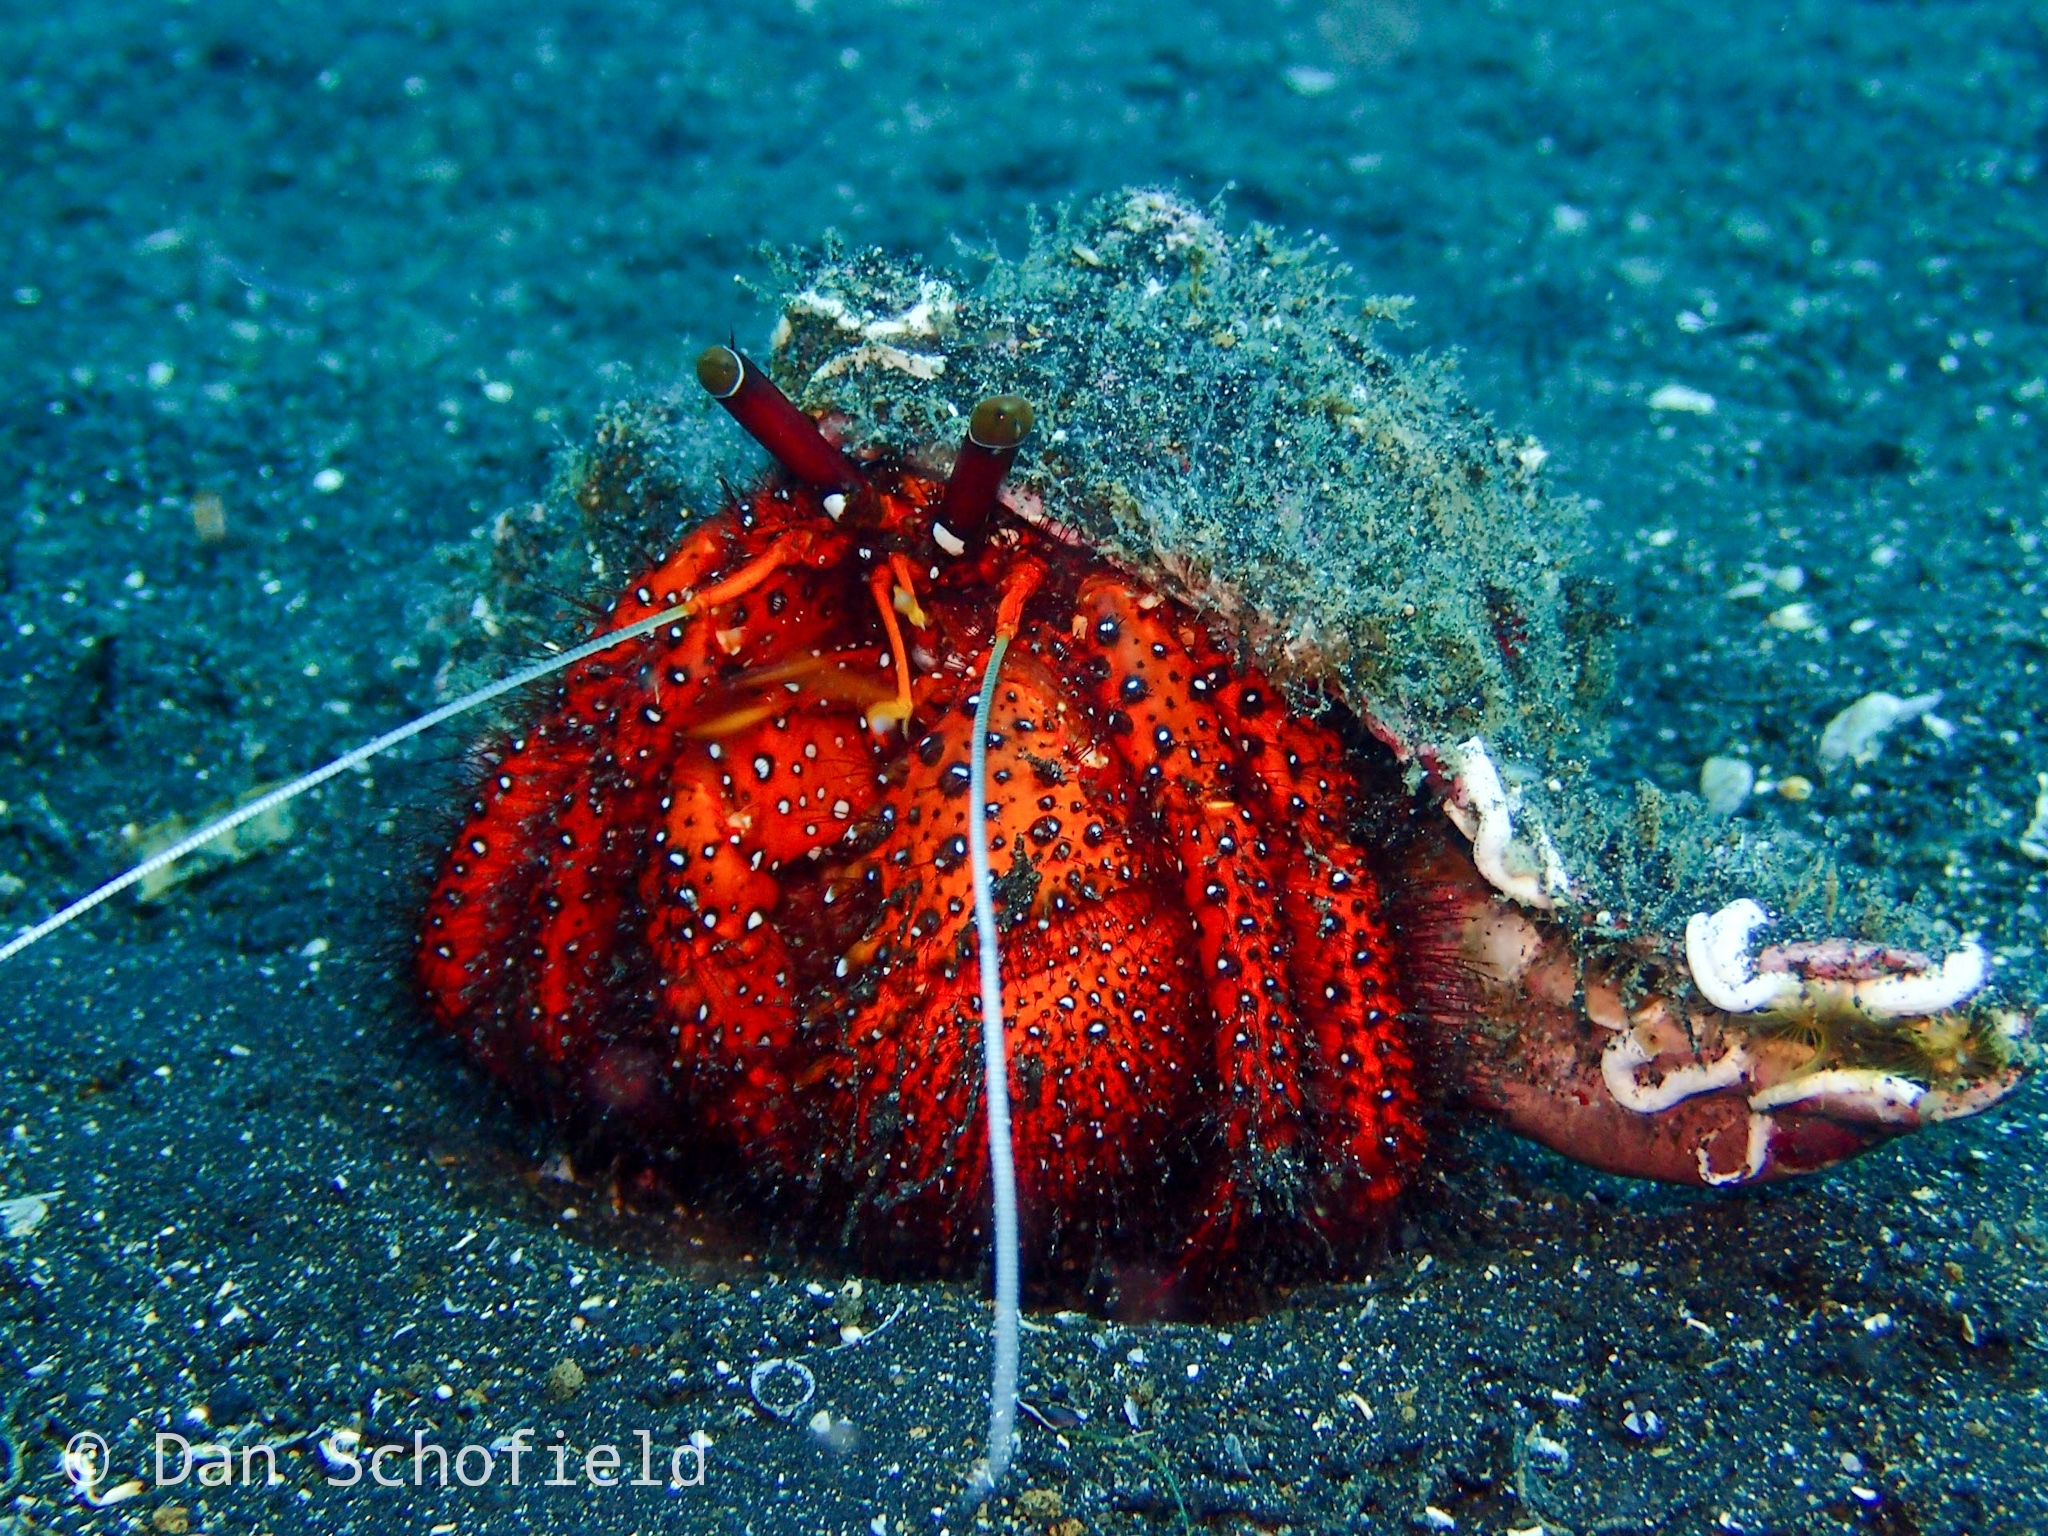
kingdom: Animalia
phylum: Arthropoda
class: Malacostraca
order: Decapoda
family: Diogenidae
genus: Dardanus
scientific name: Dardanus megistos
